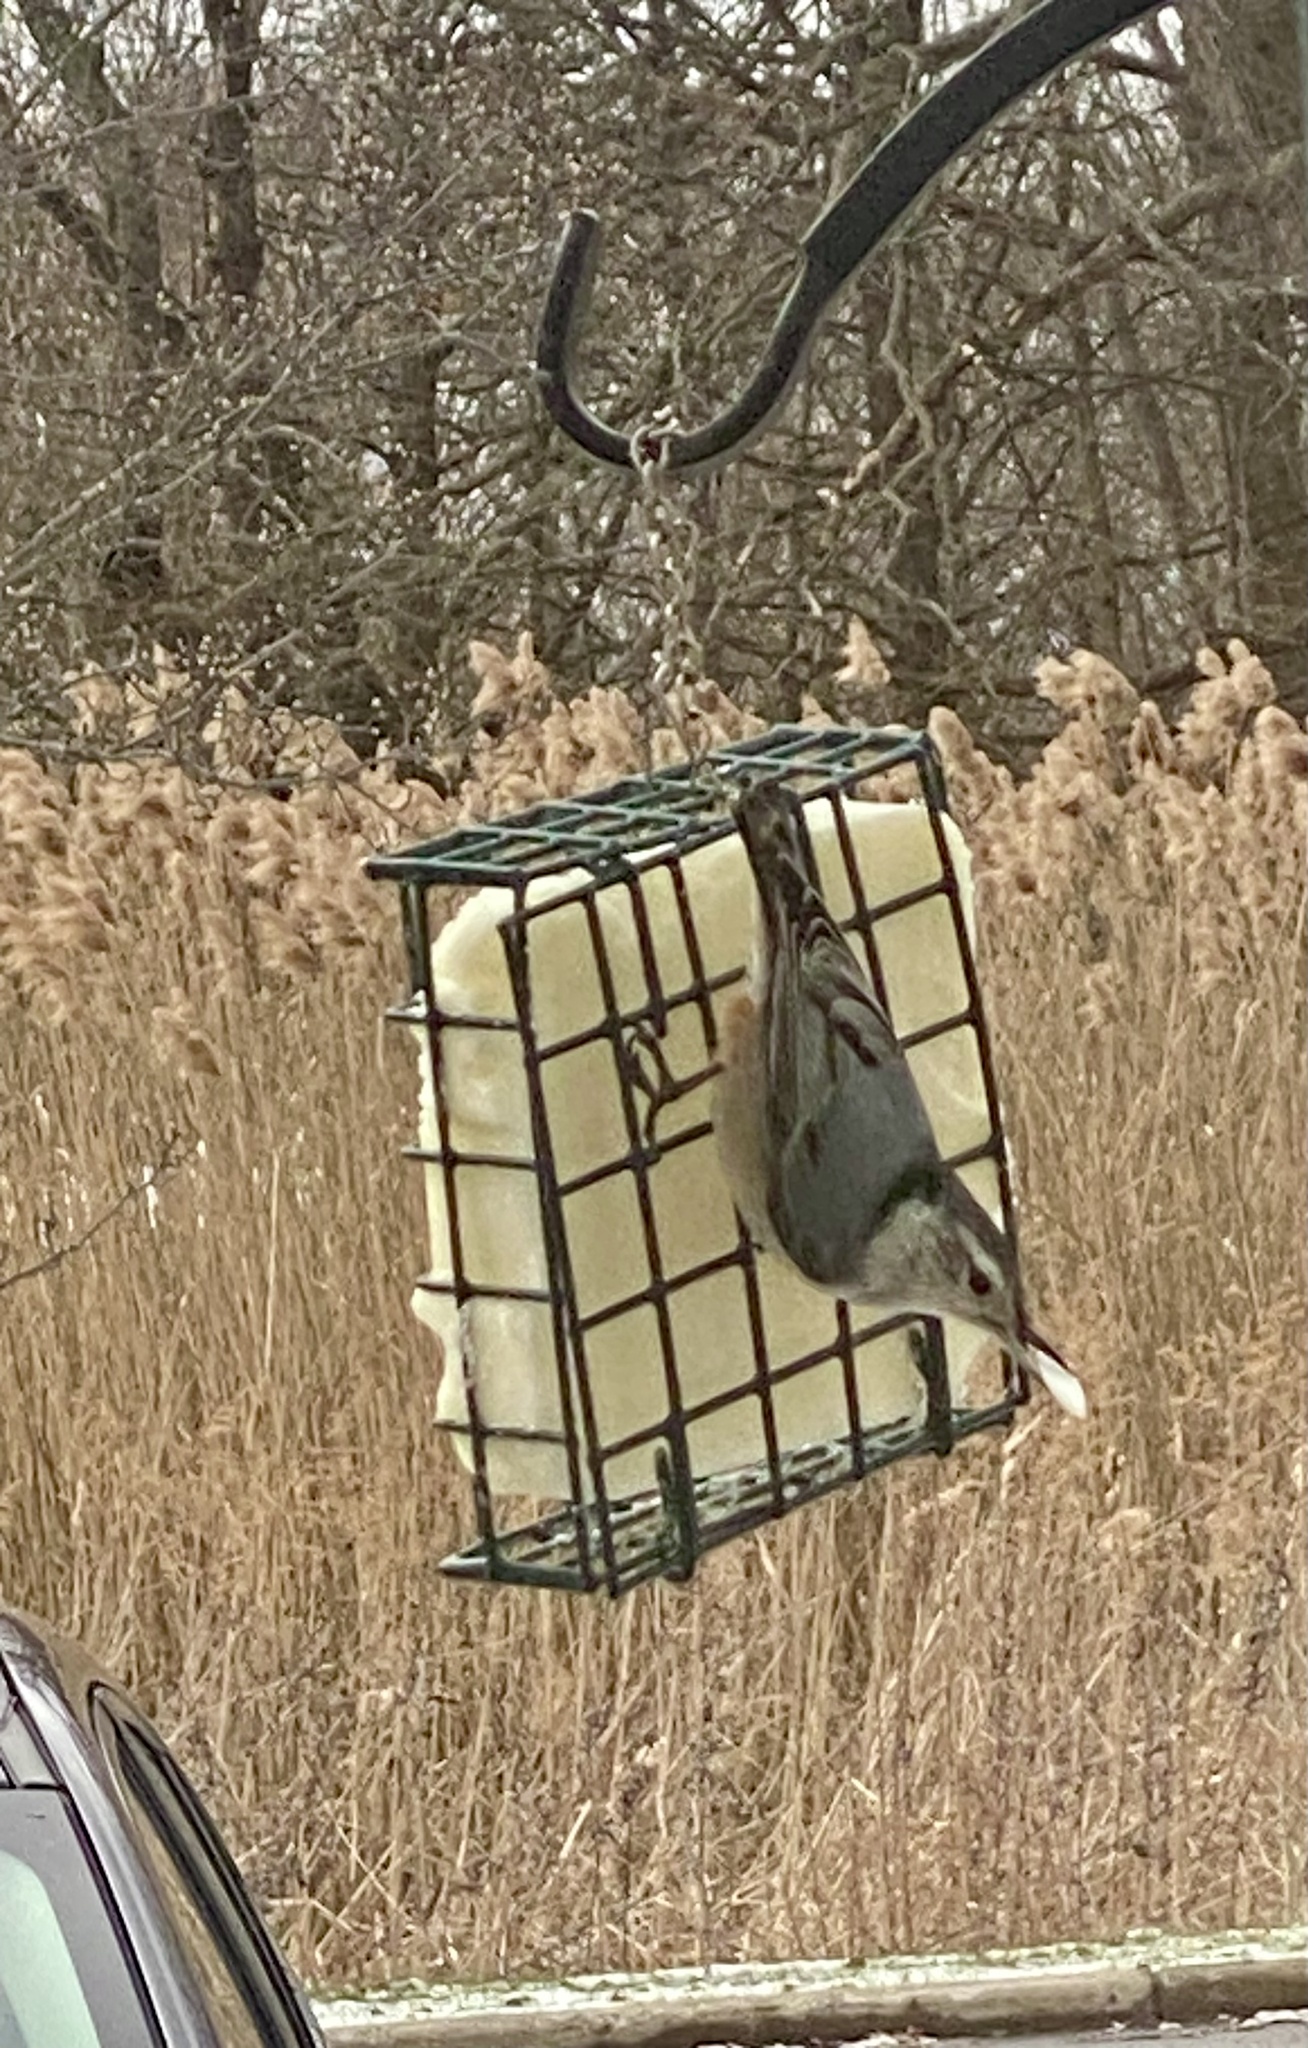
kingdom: Animalia
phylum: Chordata
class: Aves
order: Passeriformes
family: Sittidae
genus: Sitta
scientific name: Sitta carolinensis
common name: White-breasted nuthatch
